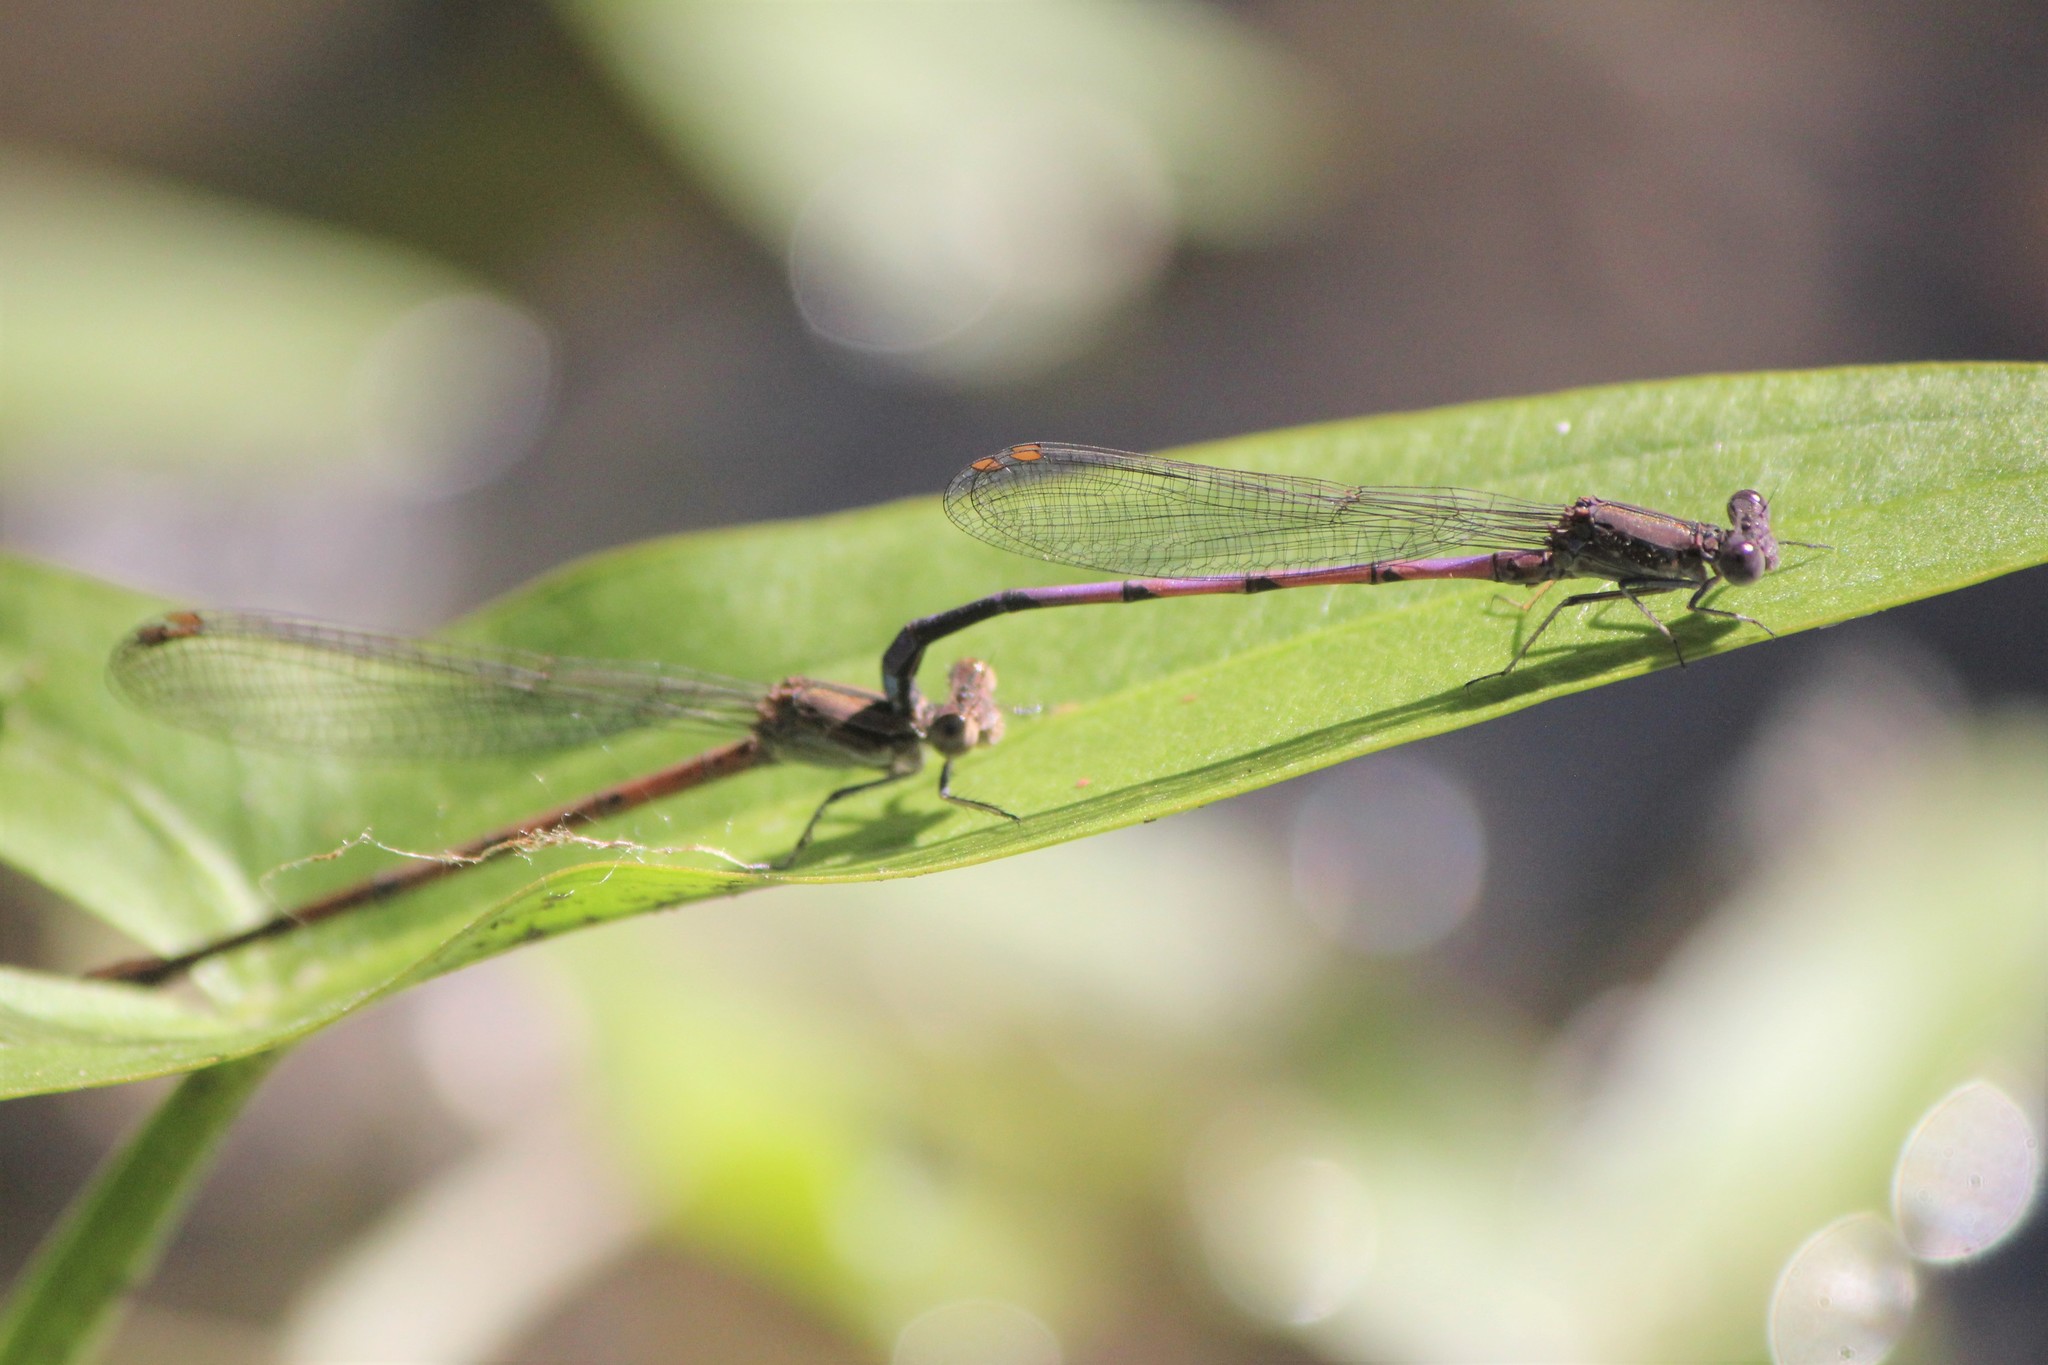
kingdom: Animalia
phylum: Arthropoda
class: Insecta
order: Odonata
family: Coenagrionidae
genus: Argia
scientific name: Argia fumipennis
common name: Variable dancer
